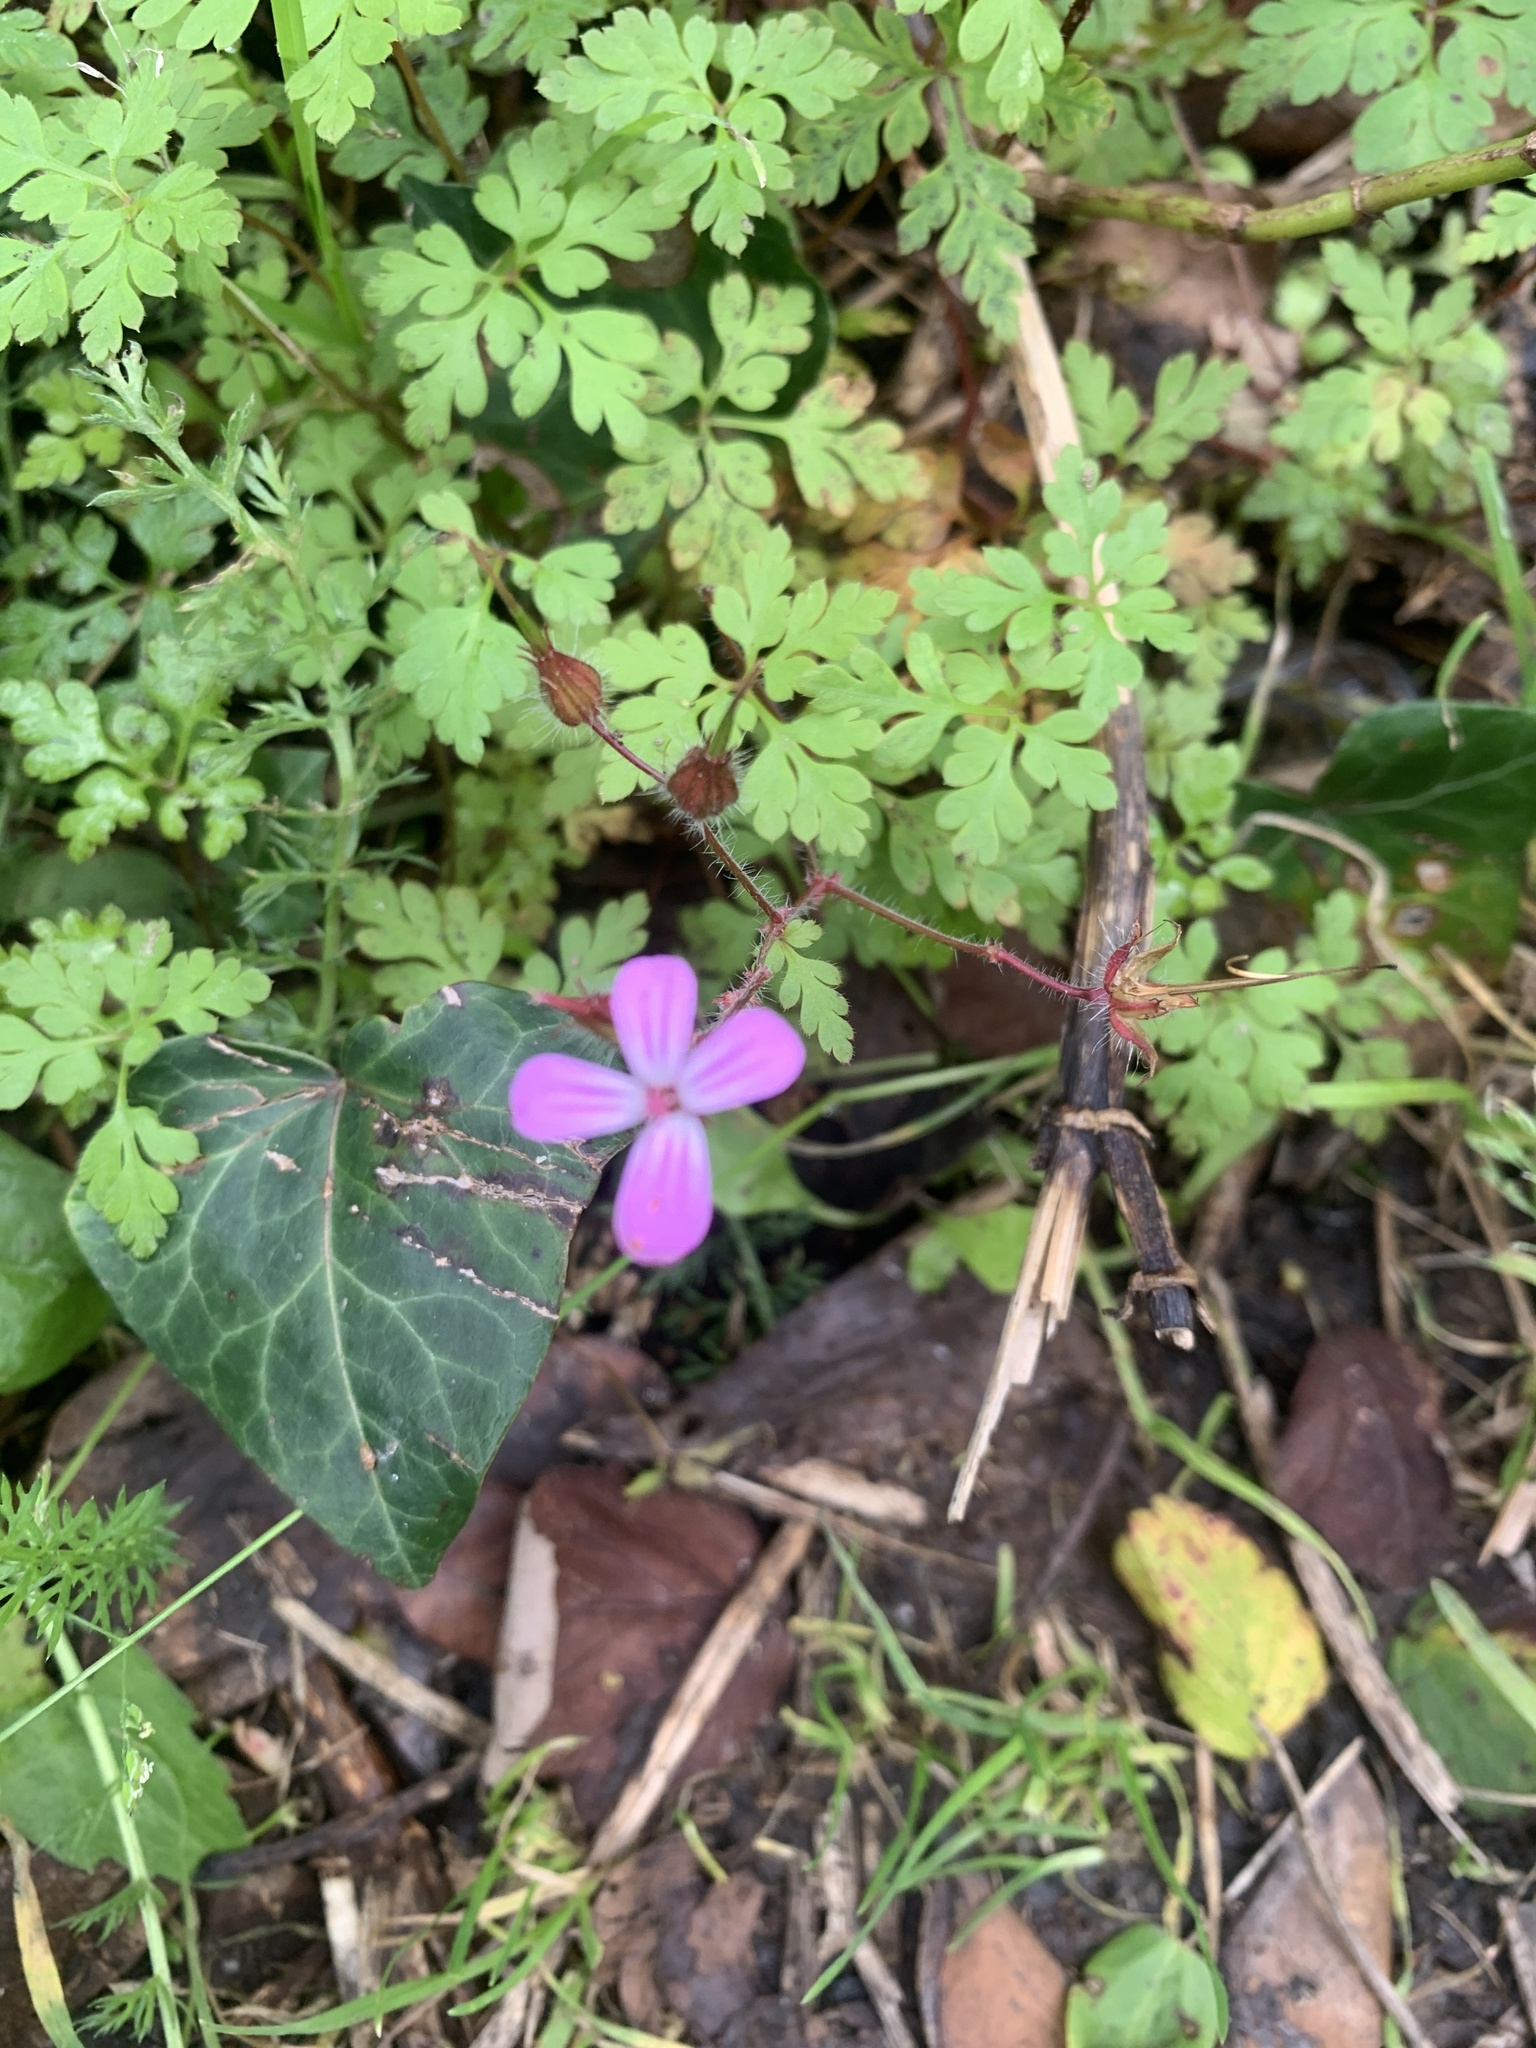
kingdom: Plantae
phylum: Tracheophyta
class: Magnoliopsida
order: Geraniales
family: Geraniaceae
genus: Geranium
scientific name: Geranium robertianum
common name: Herb-robert
